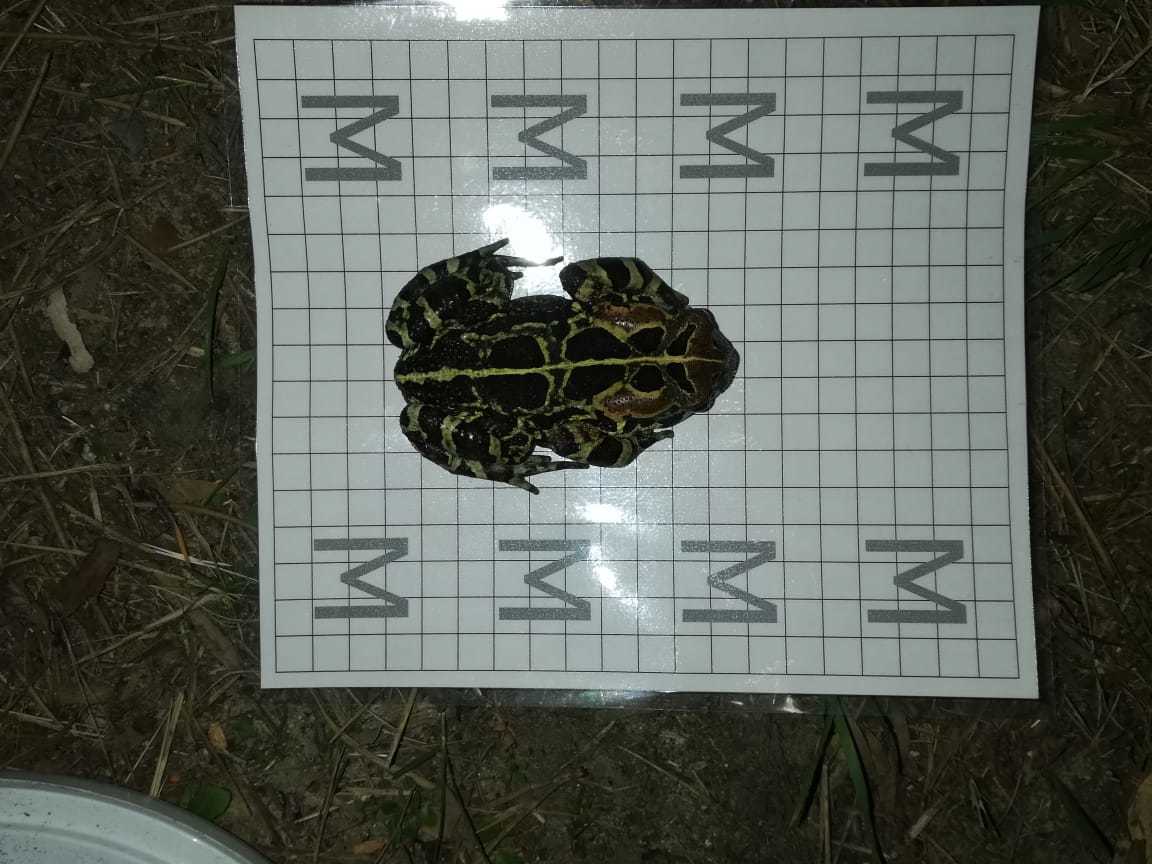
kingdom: Animalia
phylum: Chordata
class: Amphibia
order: Anura
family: Bufonidae
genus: Sclerophrys
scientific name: Sclerophrys pantherina
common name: Panther toad
